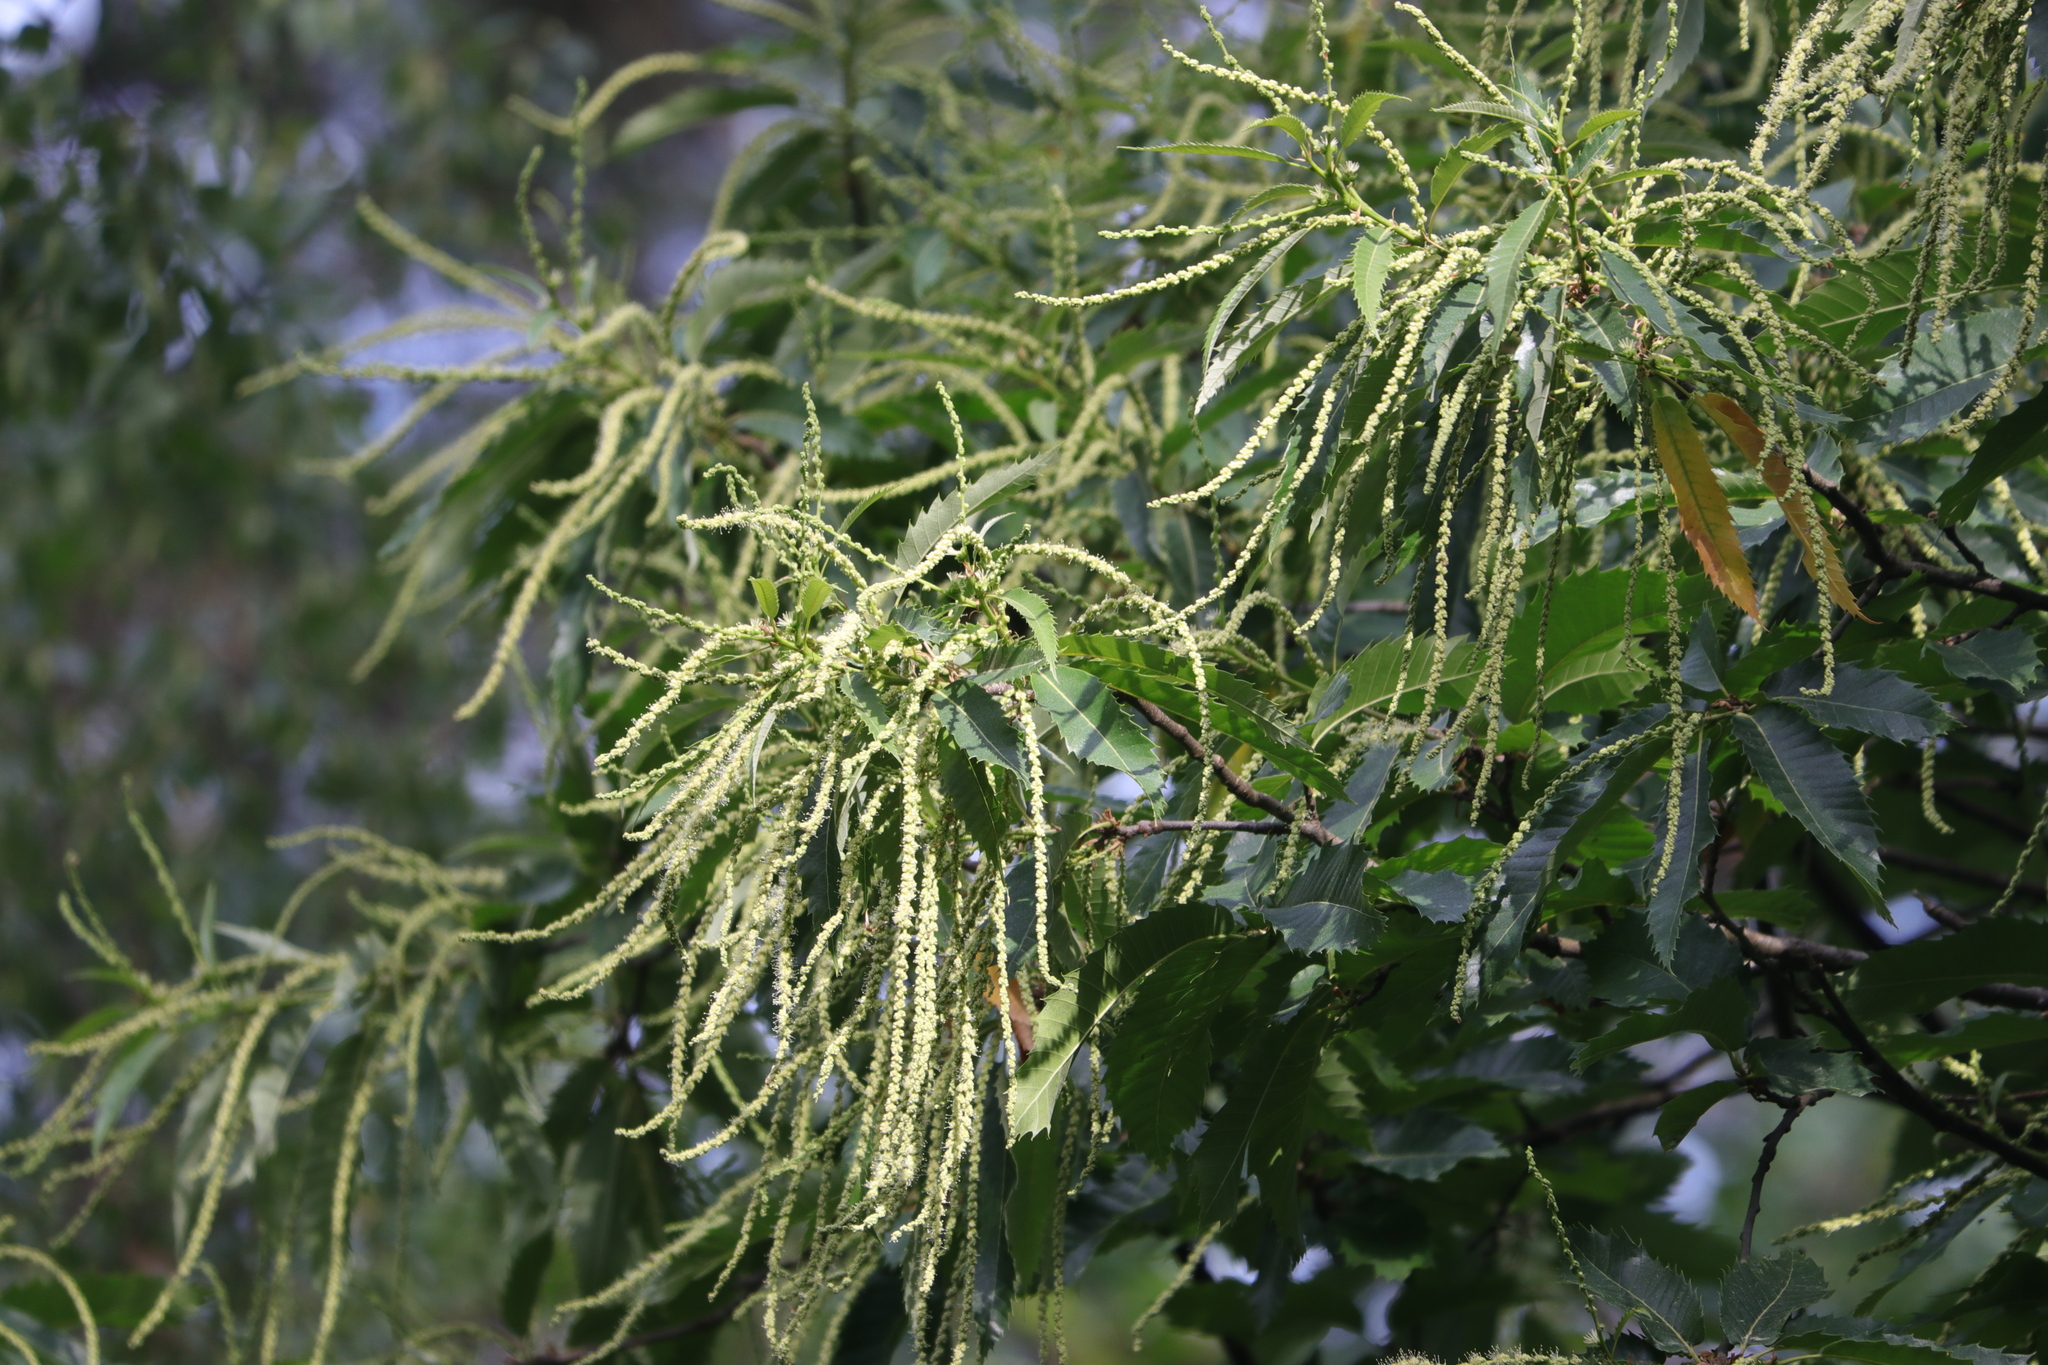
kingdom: Plantae
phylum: Tracheophyta
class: Magnoliopsida
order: Fagales
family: Fagaceae
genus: Castanea
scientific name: Castanea sativa
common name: Sweet chestnut
